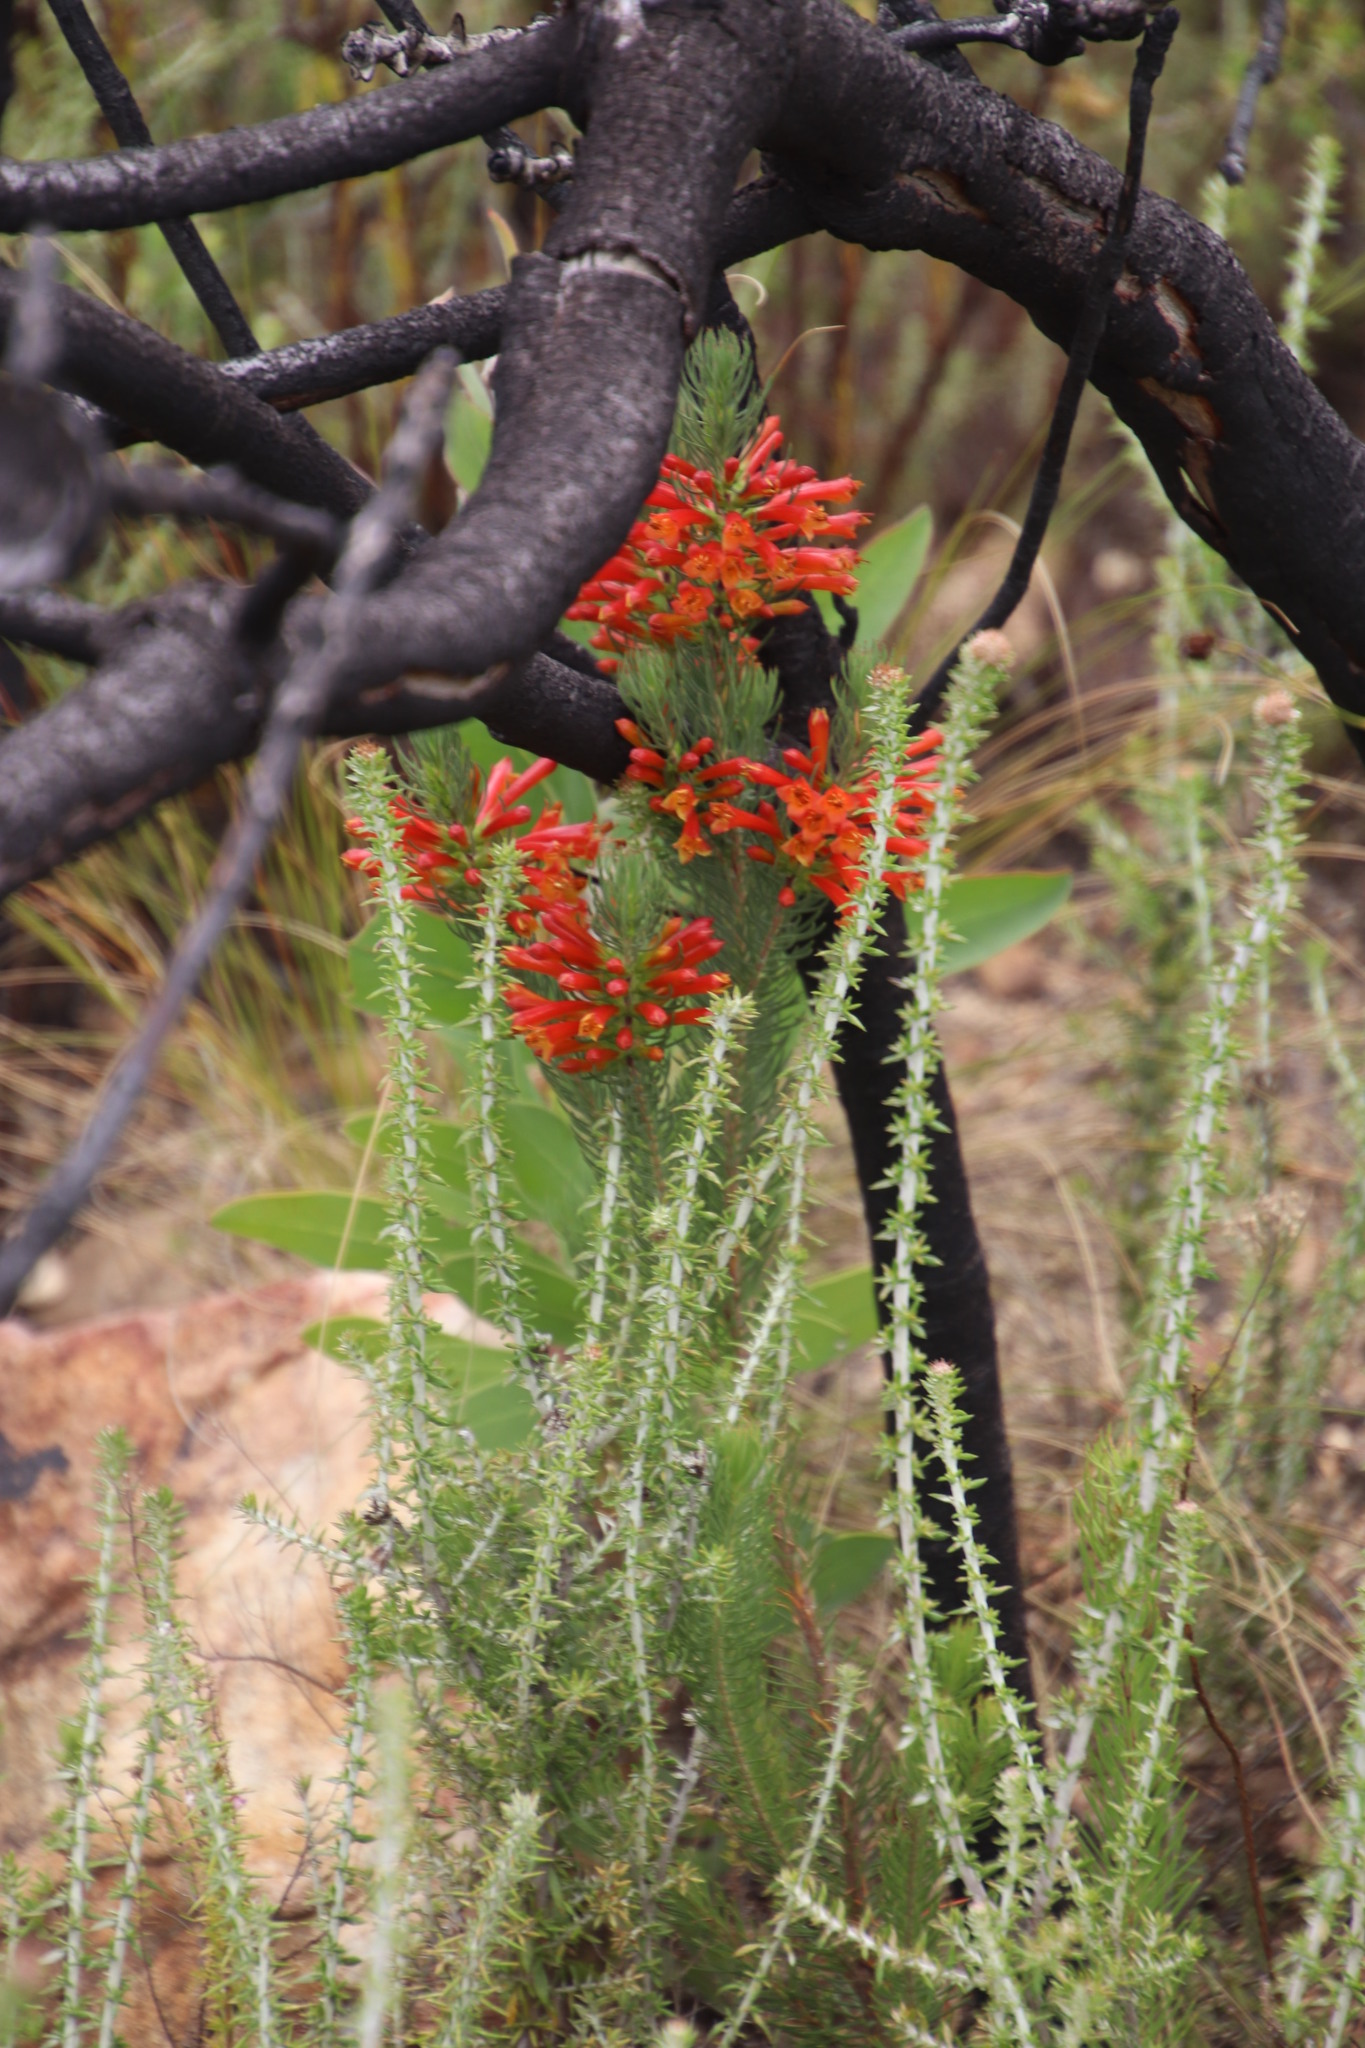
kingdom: Plantae
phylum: Tracheophyta
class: Magnoliopsida
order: Ericales
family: Ericaceae
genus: Erica
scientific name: Erica grandiflora
